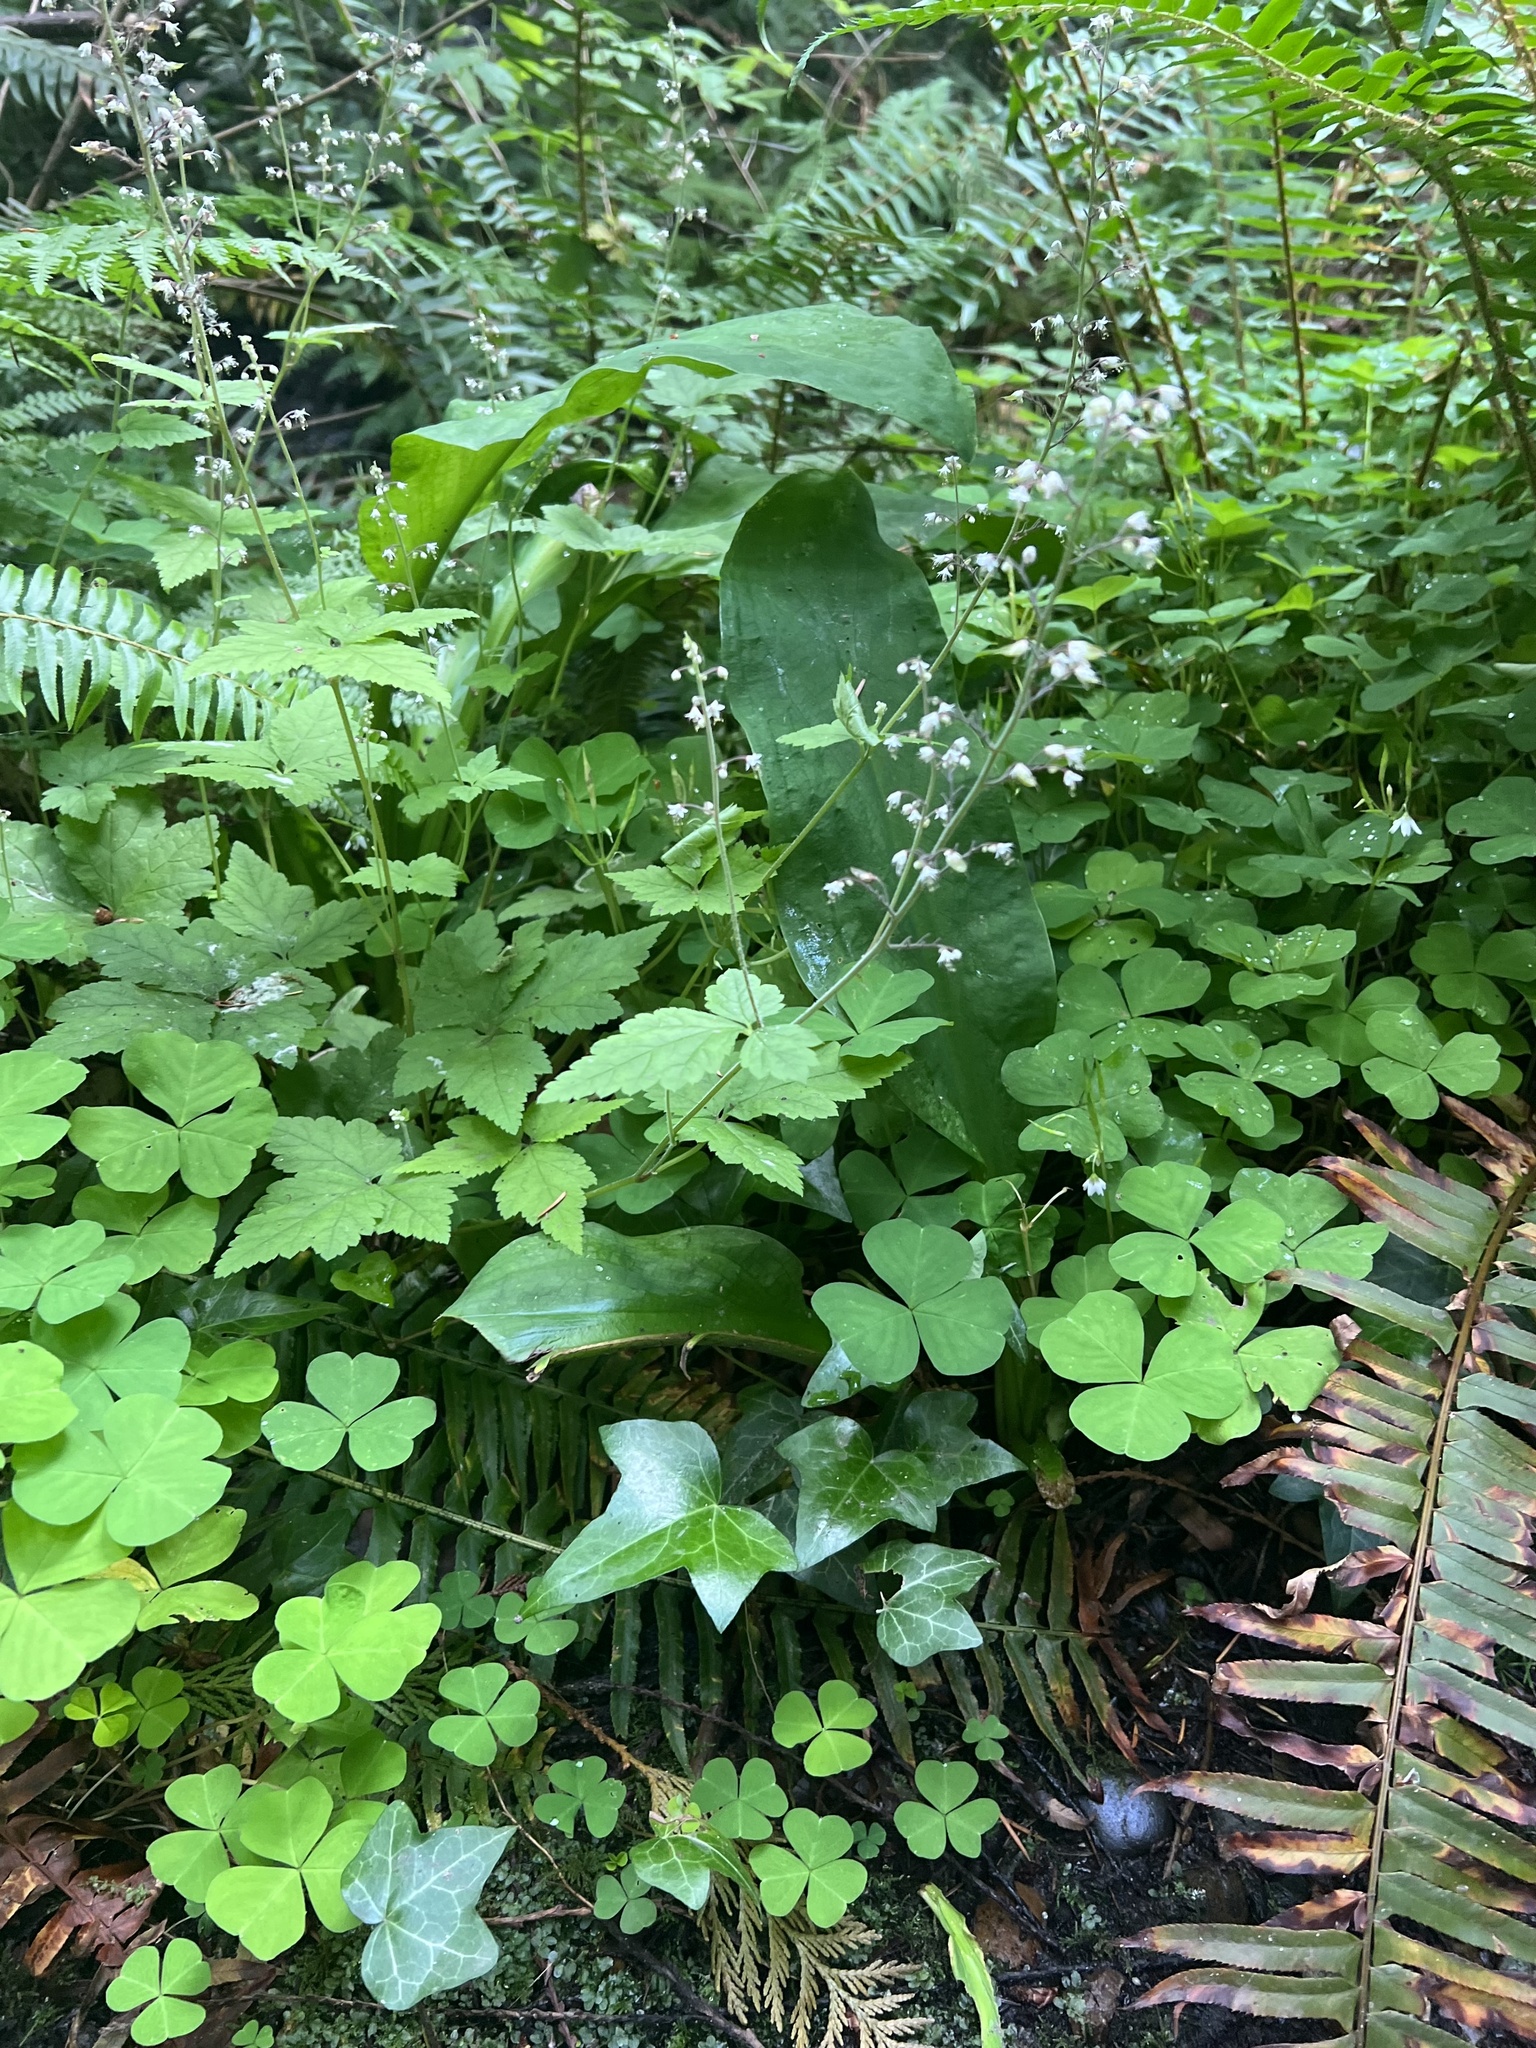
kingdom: Plantae
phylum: Tracheophyta
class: Magnoliopsida
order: Saxifragales
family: Saxifragaceae
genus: Tiarella
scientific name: Tiarella trifoliata
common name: Sugar-scoop
